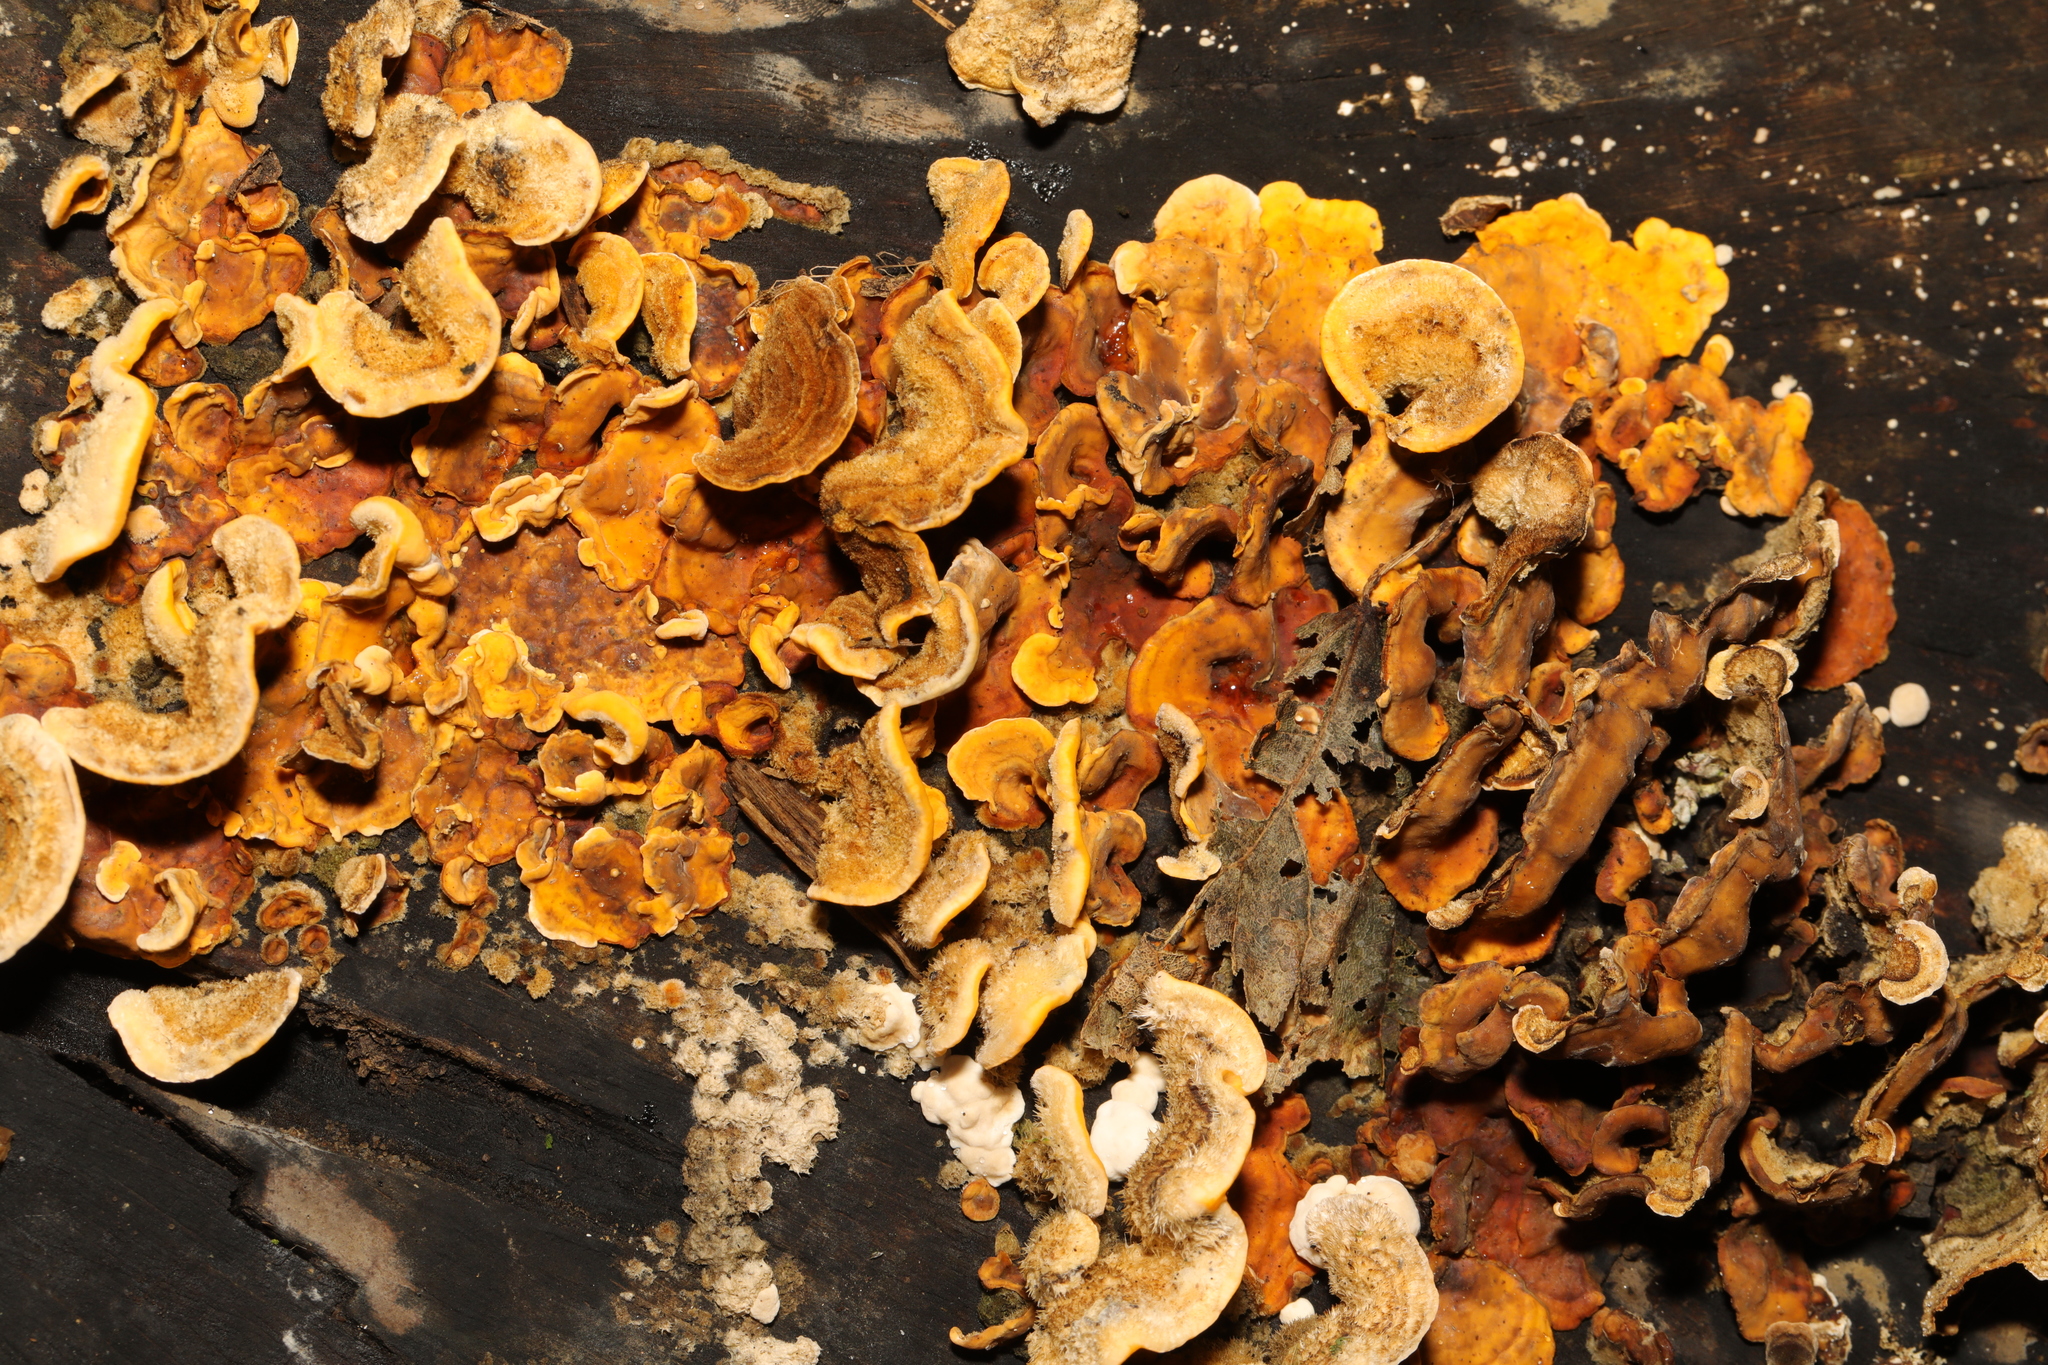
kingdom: Fungi
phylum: Basidiomycota
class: Agaricomycetes
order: Russulales
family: Stereaceae
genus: Stereum
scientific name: Stereum hirsutum
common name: Hairy curtain crust
